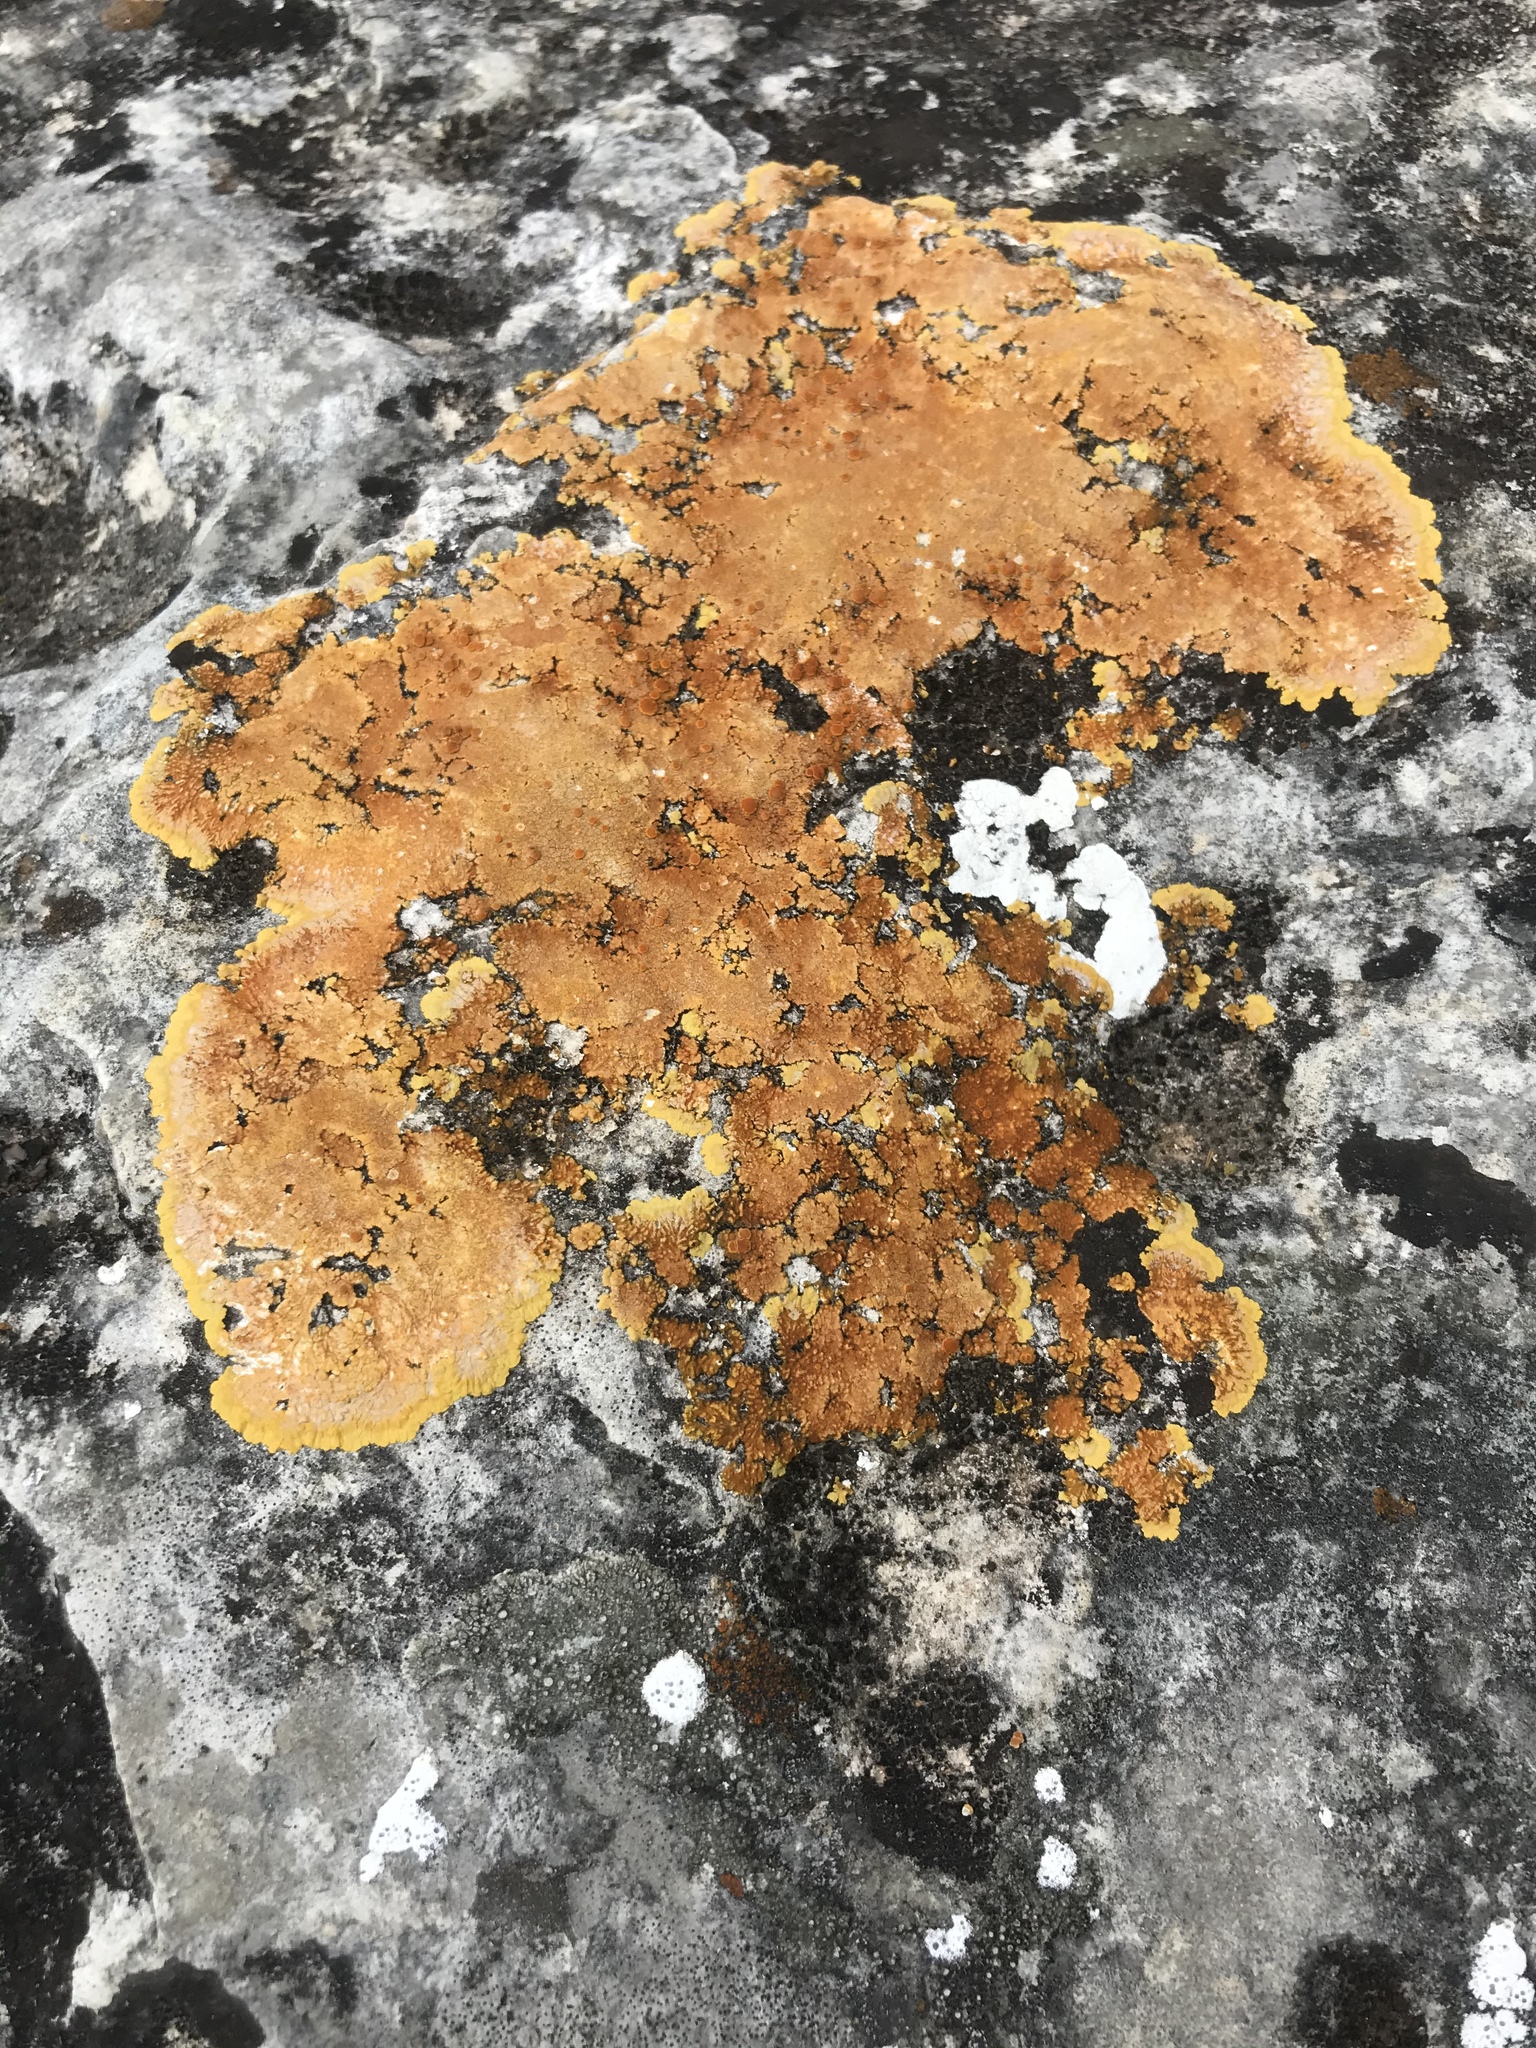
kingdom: Fungi
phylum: Ascomycota
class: Lecanoromycetes
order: Teloschistales
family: Teloschistaceae
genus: Caloplaca
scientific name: Caloplaca eugyra
